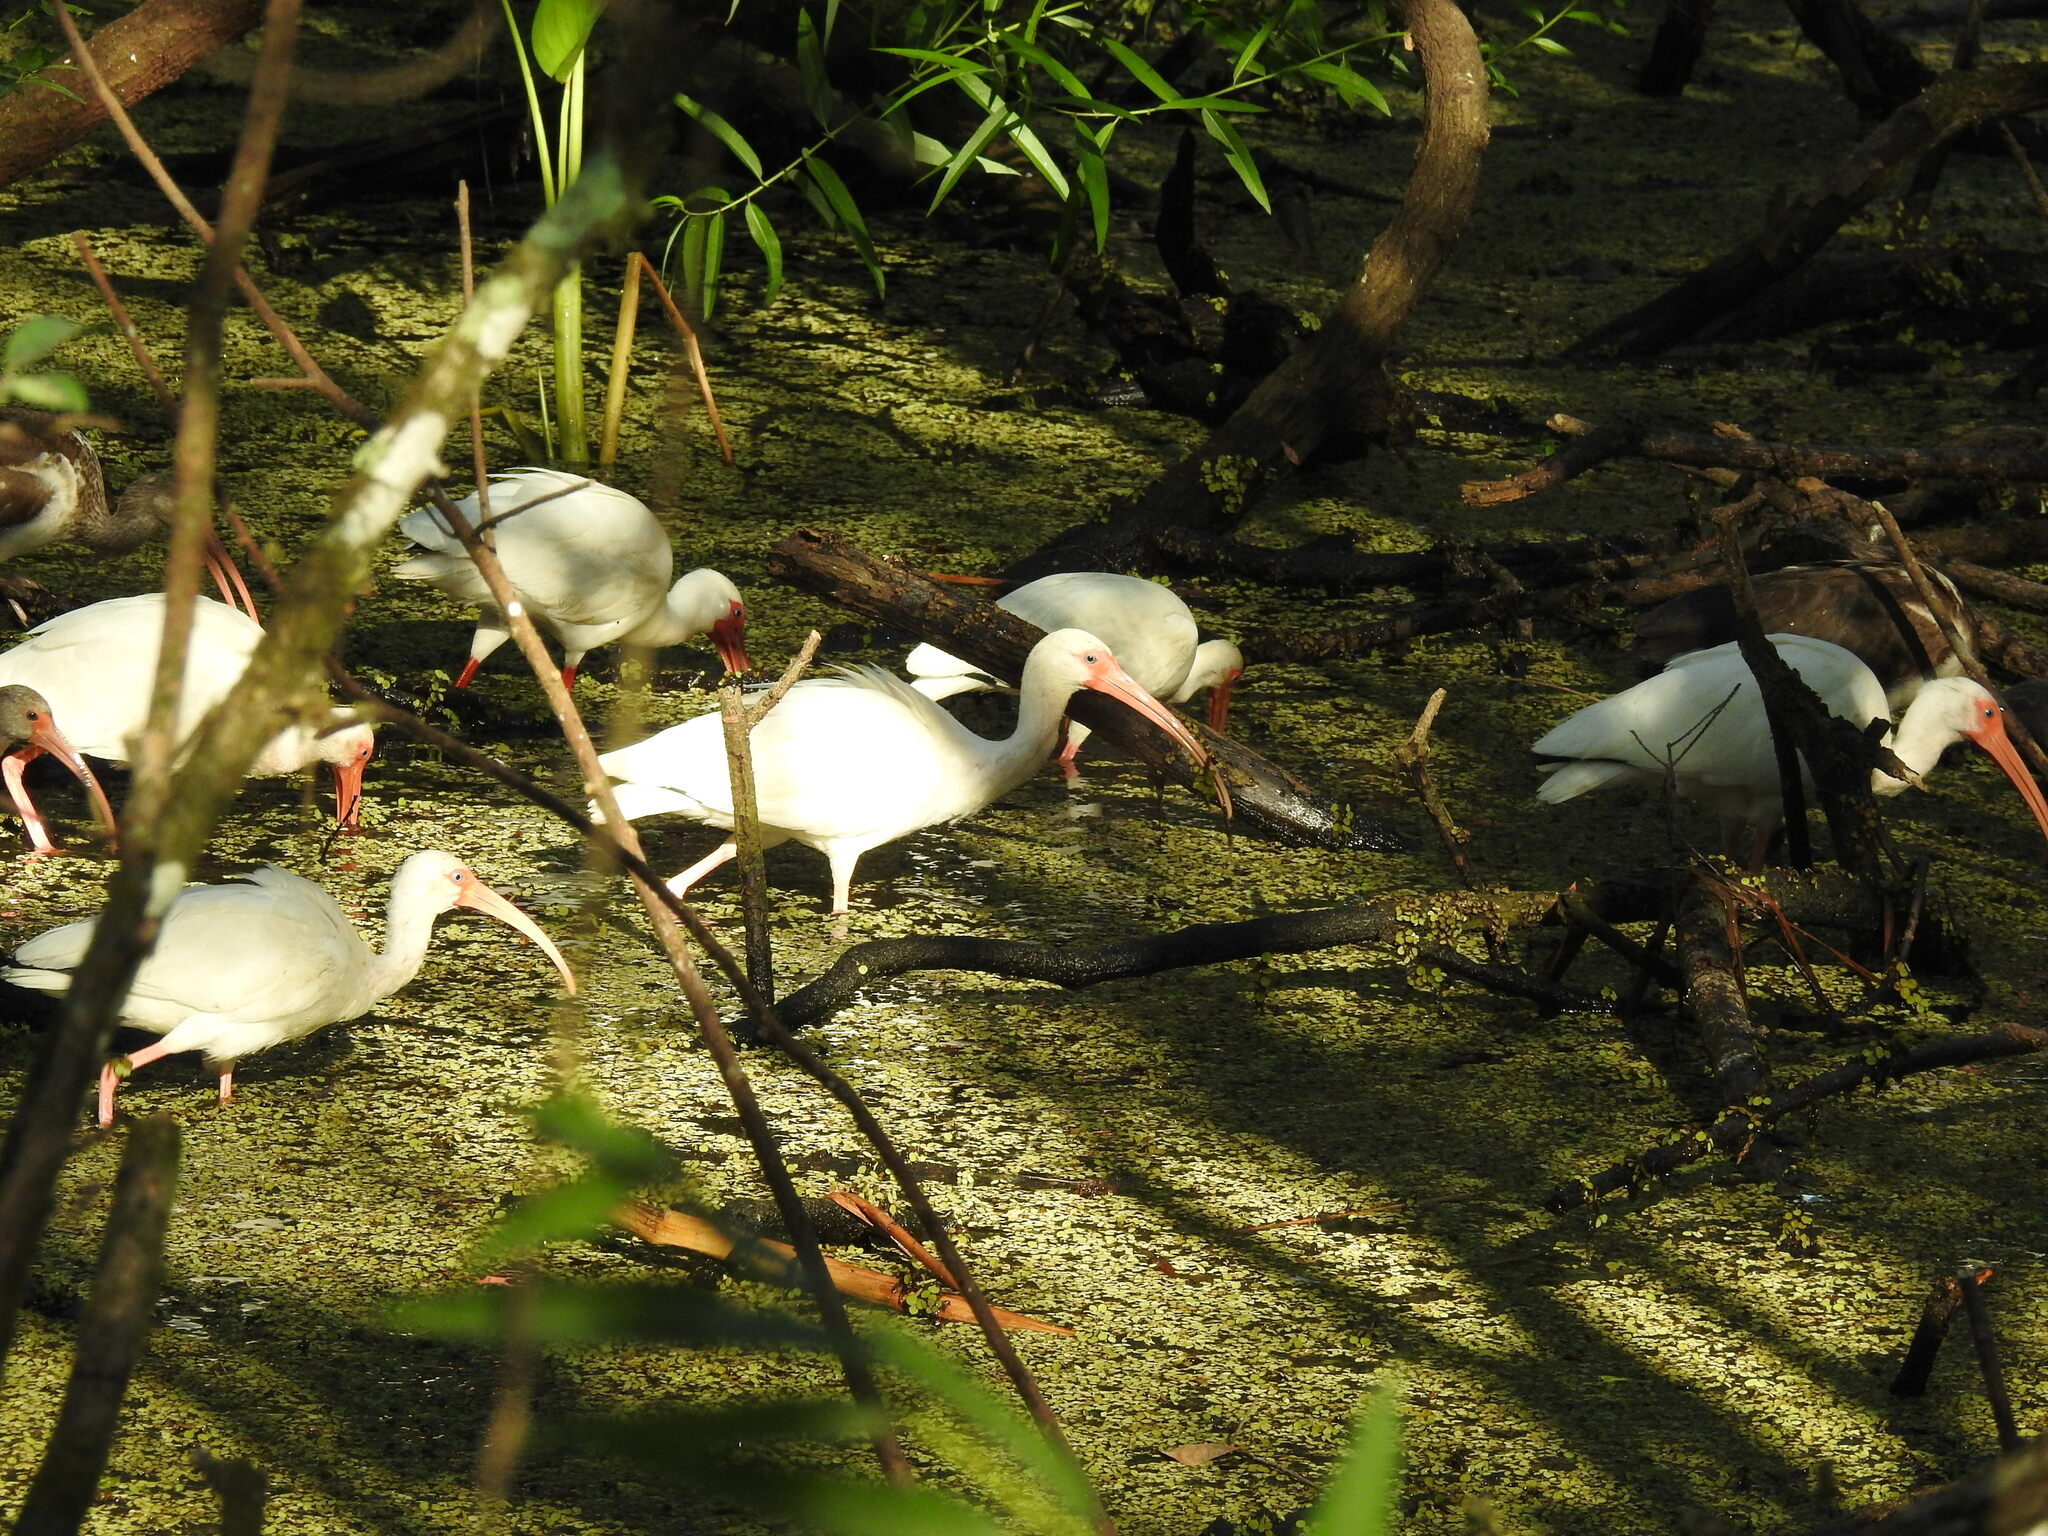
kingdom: Animalia
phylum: Chordata
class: Aves
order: Pelecaniformes
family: Threskiornithidae
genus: Eudocimus
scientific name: Eudocimus albus
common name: White ibis
